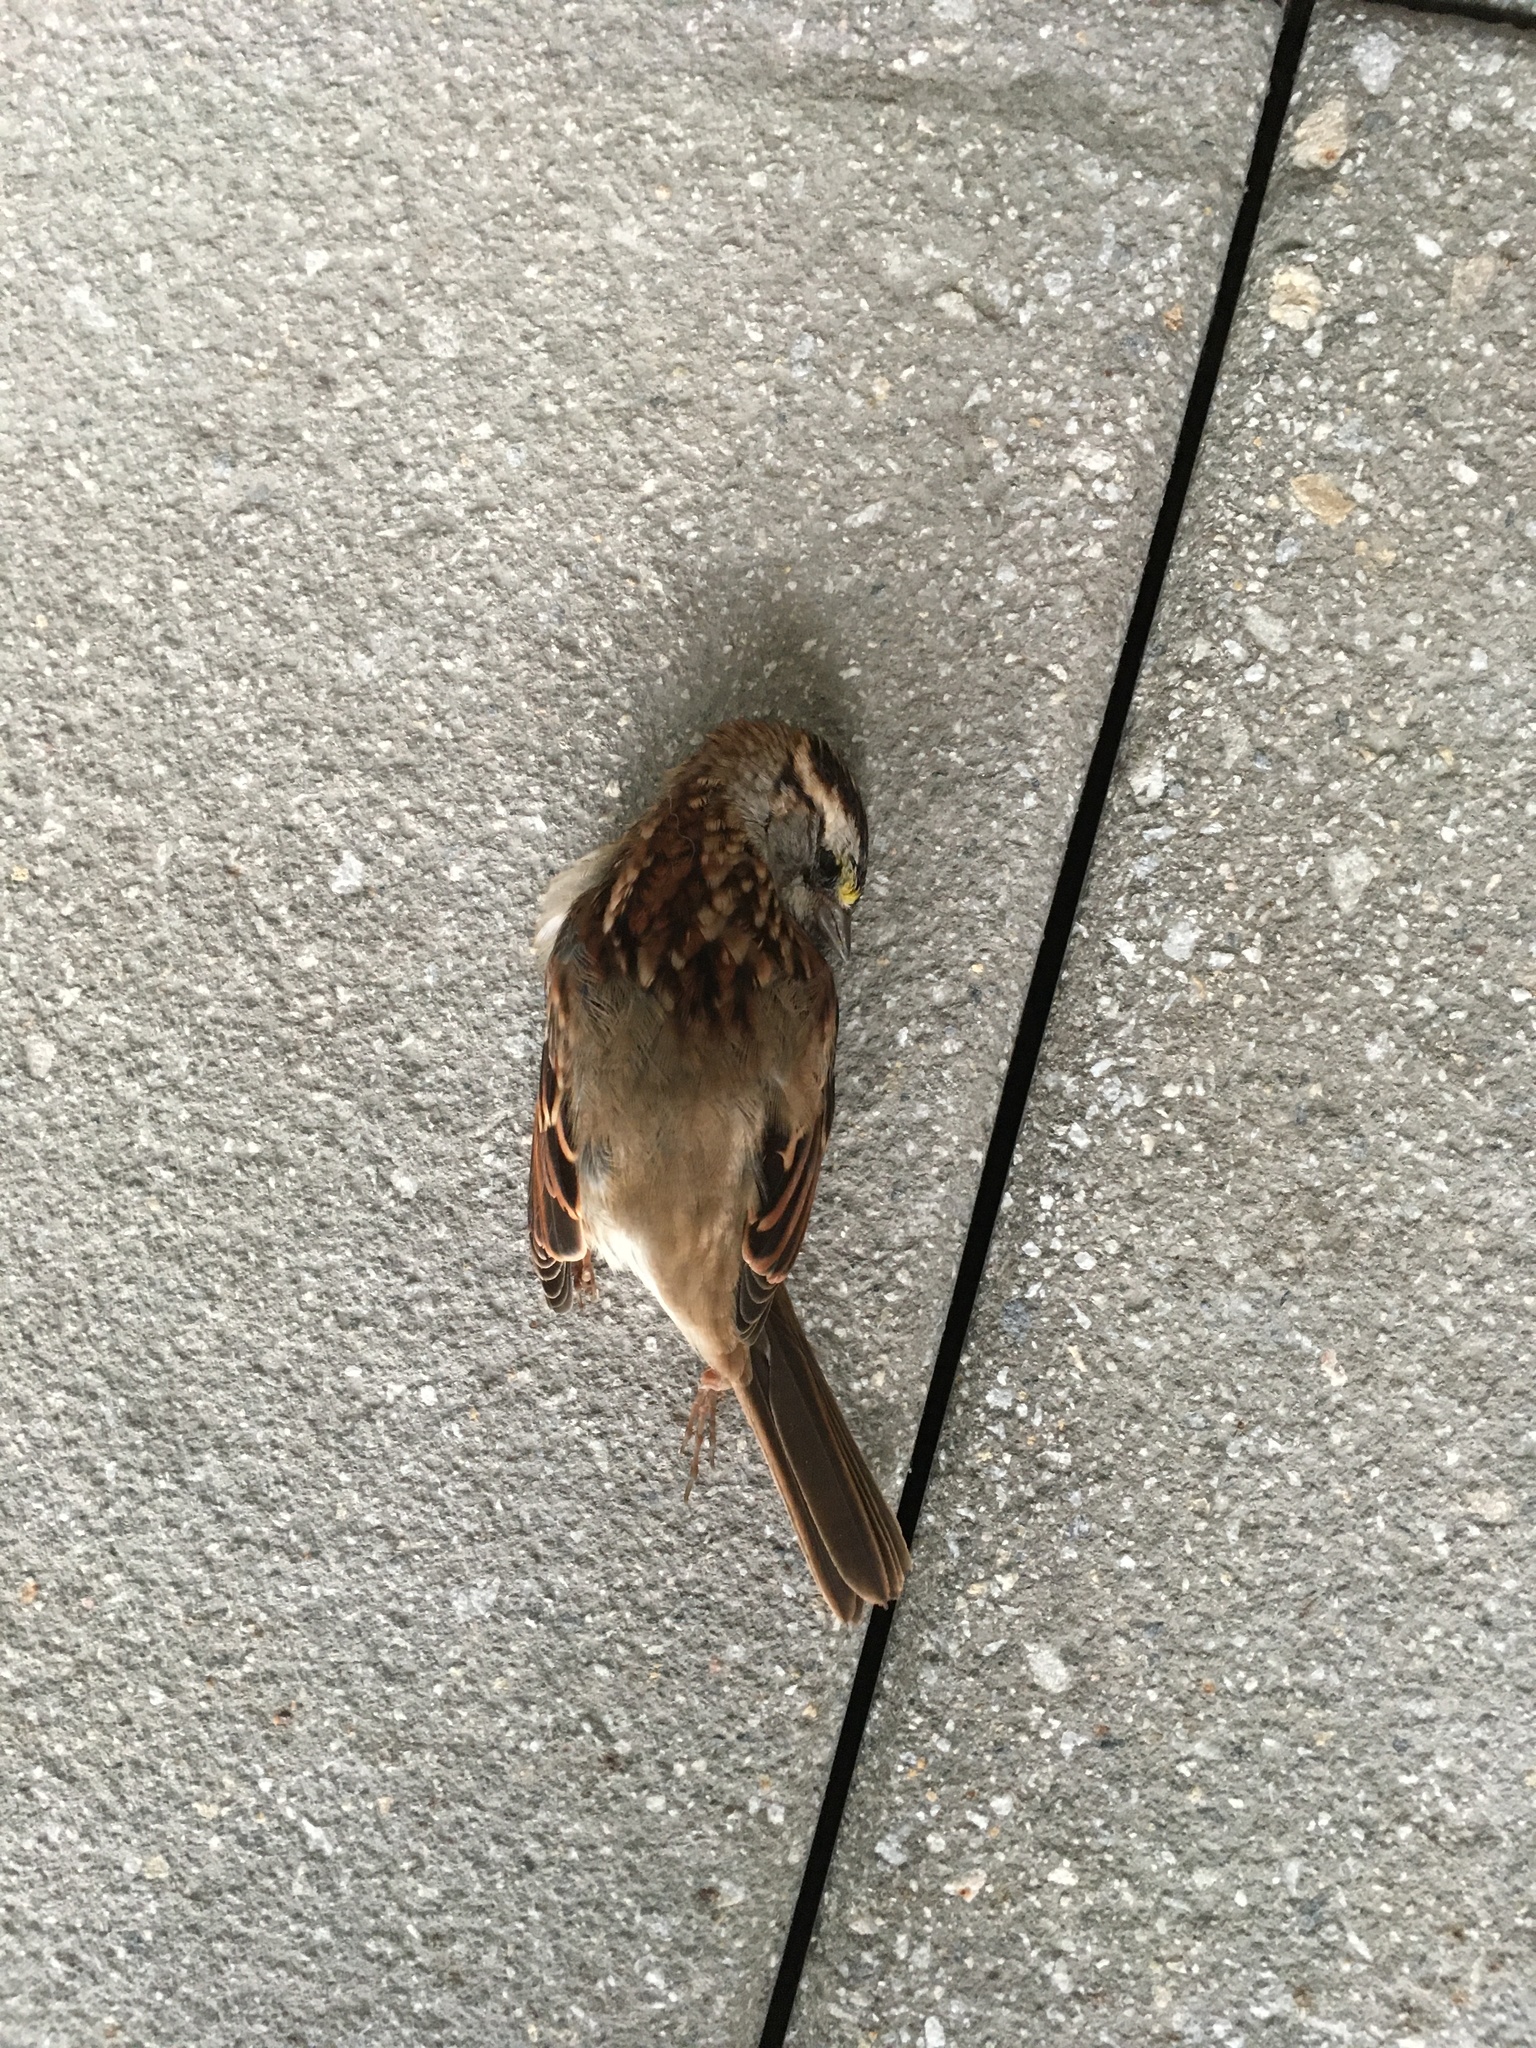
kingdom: Animalia
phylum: Chordata
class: Aves
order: Passeriformes
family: Passerellidae
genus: Zonotrichia
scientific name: Zonotrichia albicollis
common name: White-throated sparrow
